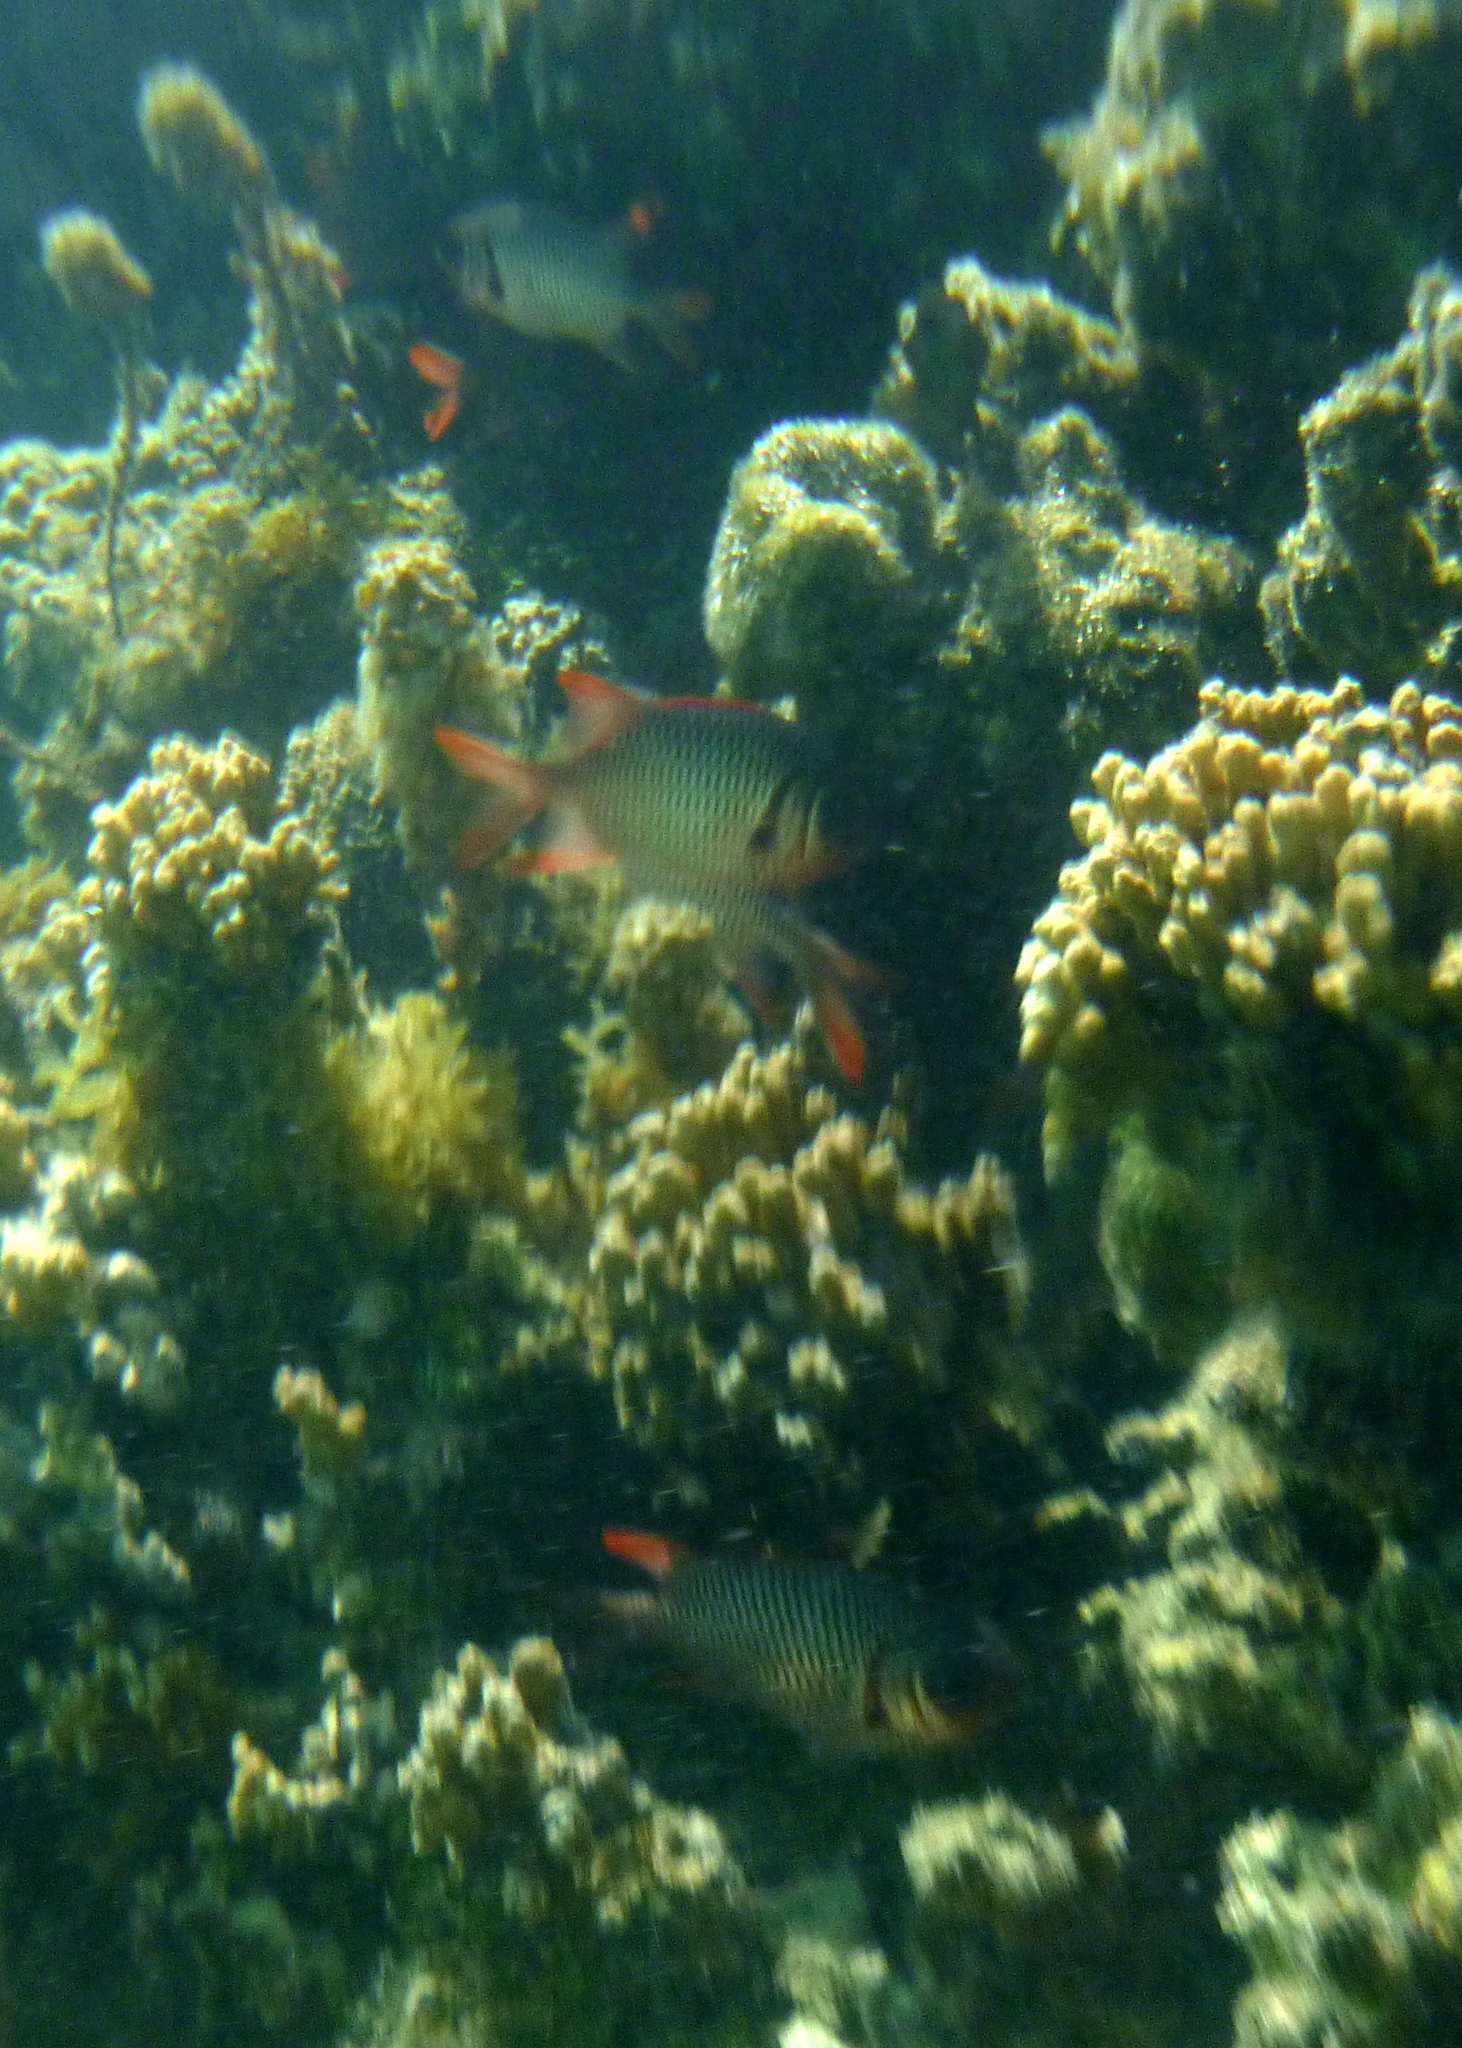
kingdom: Animalia
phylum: Chordata
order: Beryciformes
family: Holocentridae
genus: Myripristis
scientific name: Myripristis violacea
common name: Lattice soldierfish
